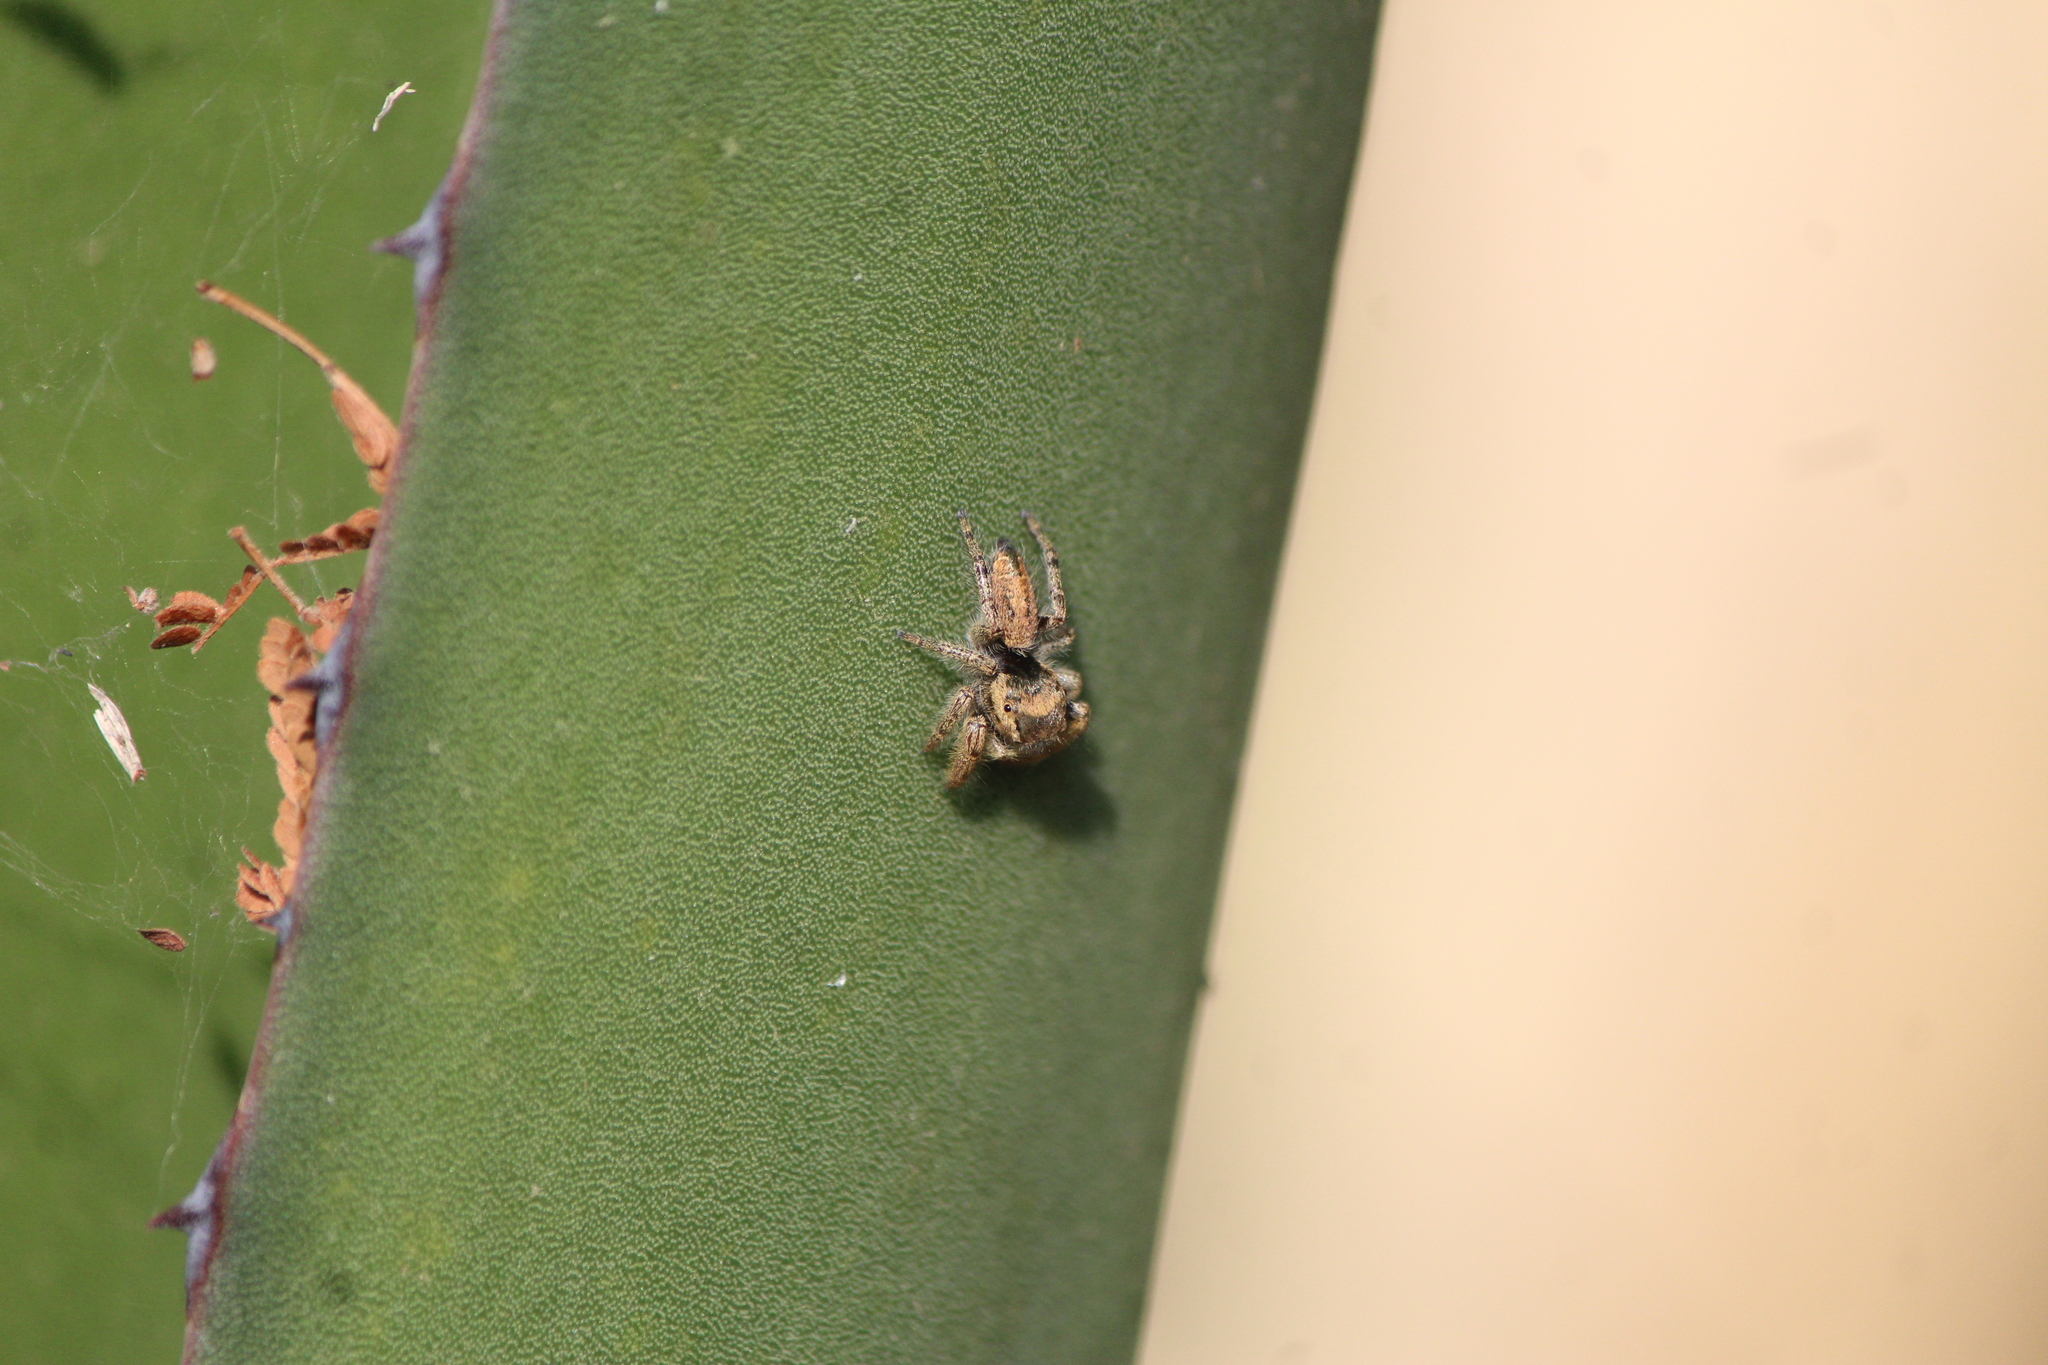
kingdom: Animalia
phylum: Arthropoda
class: Arachnida
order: Araneae
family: Salticidae
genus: Phidippus
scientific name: Phidippus arizonensis
